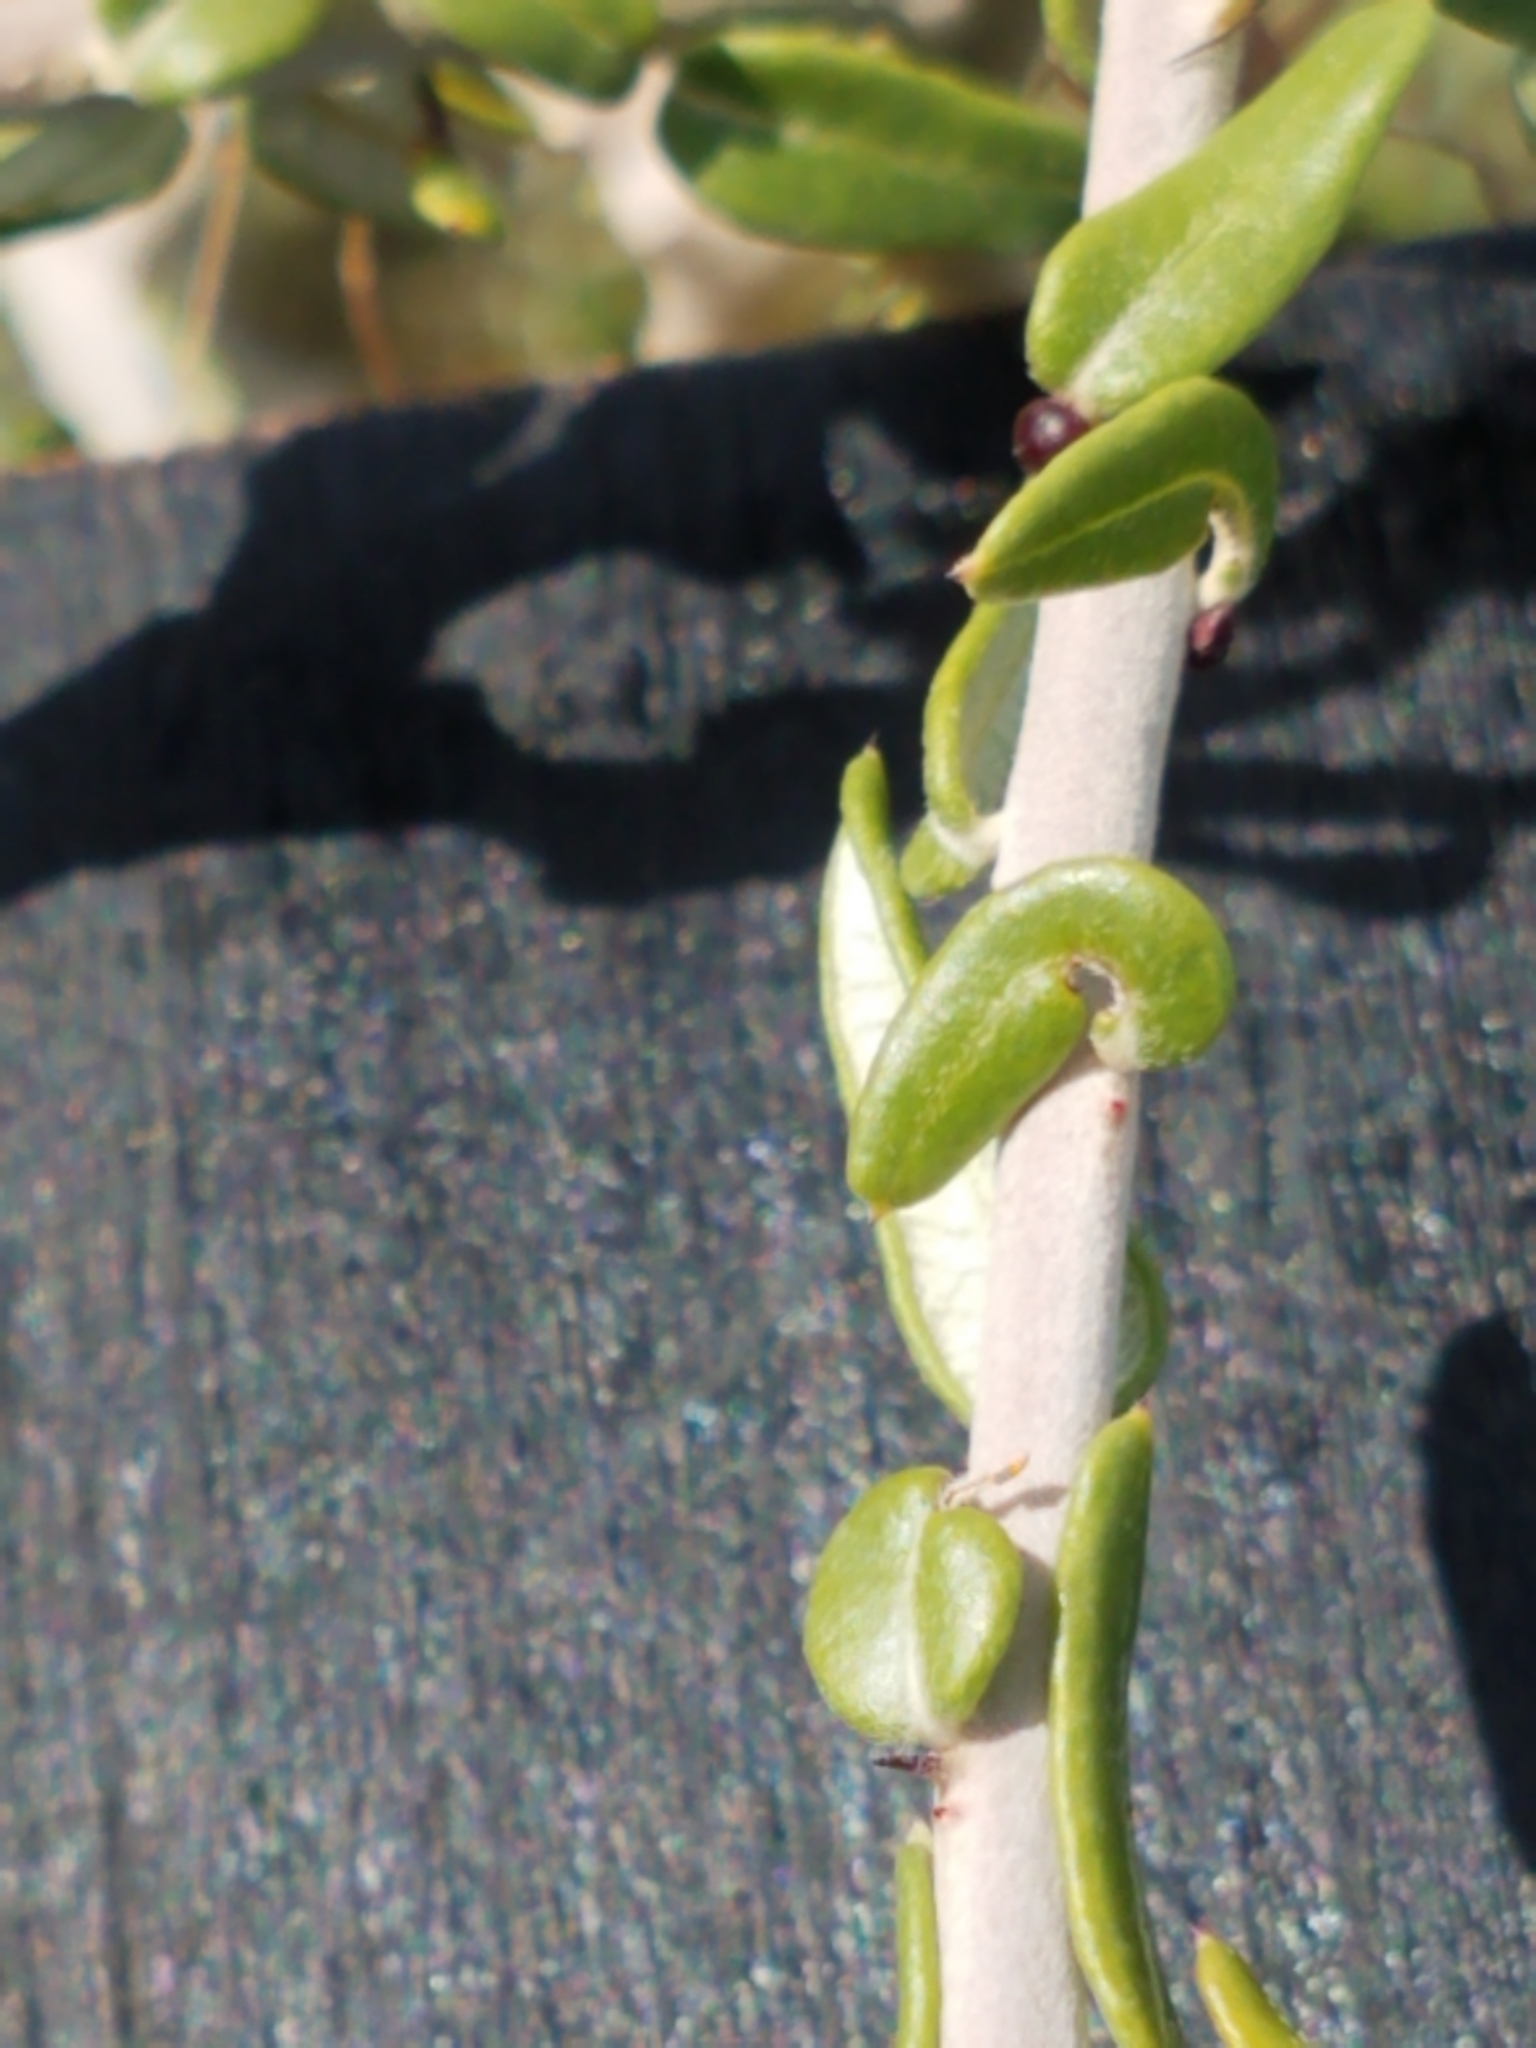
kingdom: Plantae
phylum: Tracheophyta
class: Magnoliopsida
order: Sapindales
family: Simaroubaceae
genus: Castela
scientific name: Castela erecta
